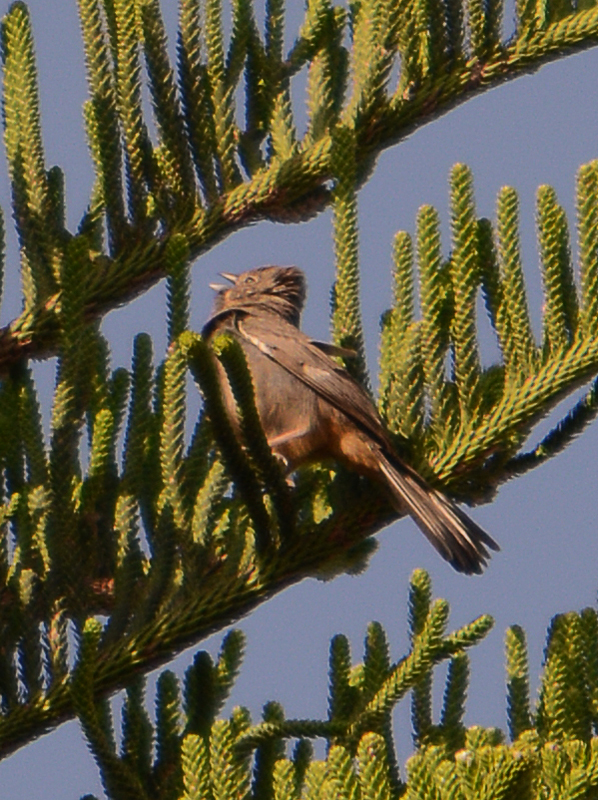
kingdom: Animalia
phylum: Chordata
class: Aves
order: Passeriformes
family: Passerellidae
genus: Melozone
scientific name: Melozone fusca
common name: Canyon towhee
